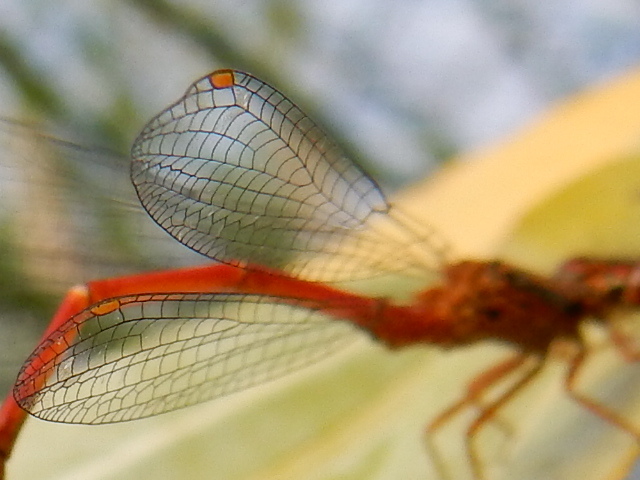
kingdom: Animalia
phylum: Arthropoda
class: Insecta
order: Odonata
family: Coenagrionidae
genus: Xanthocnemis
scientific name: Xanthocnemis zealandica
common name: Common redcoat damselfly
